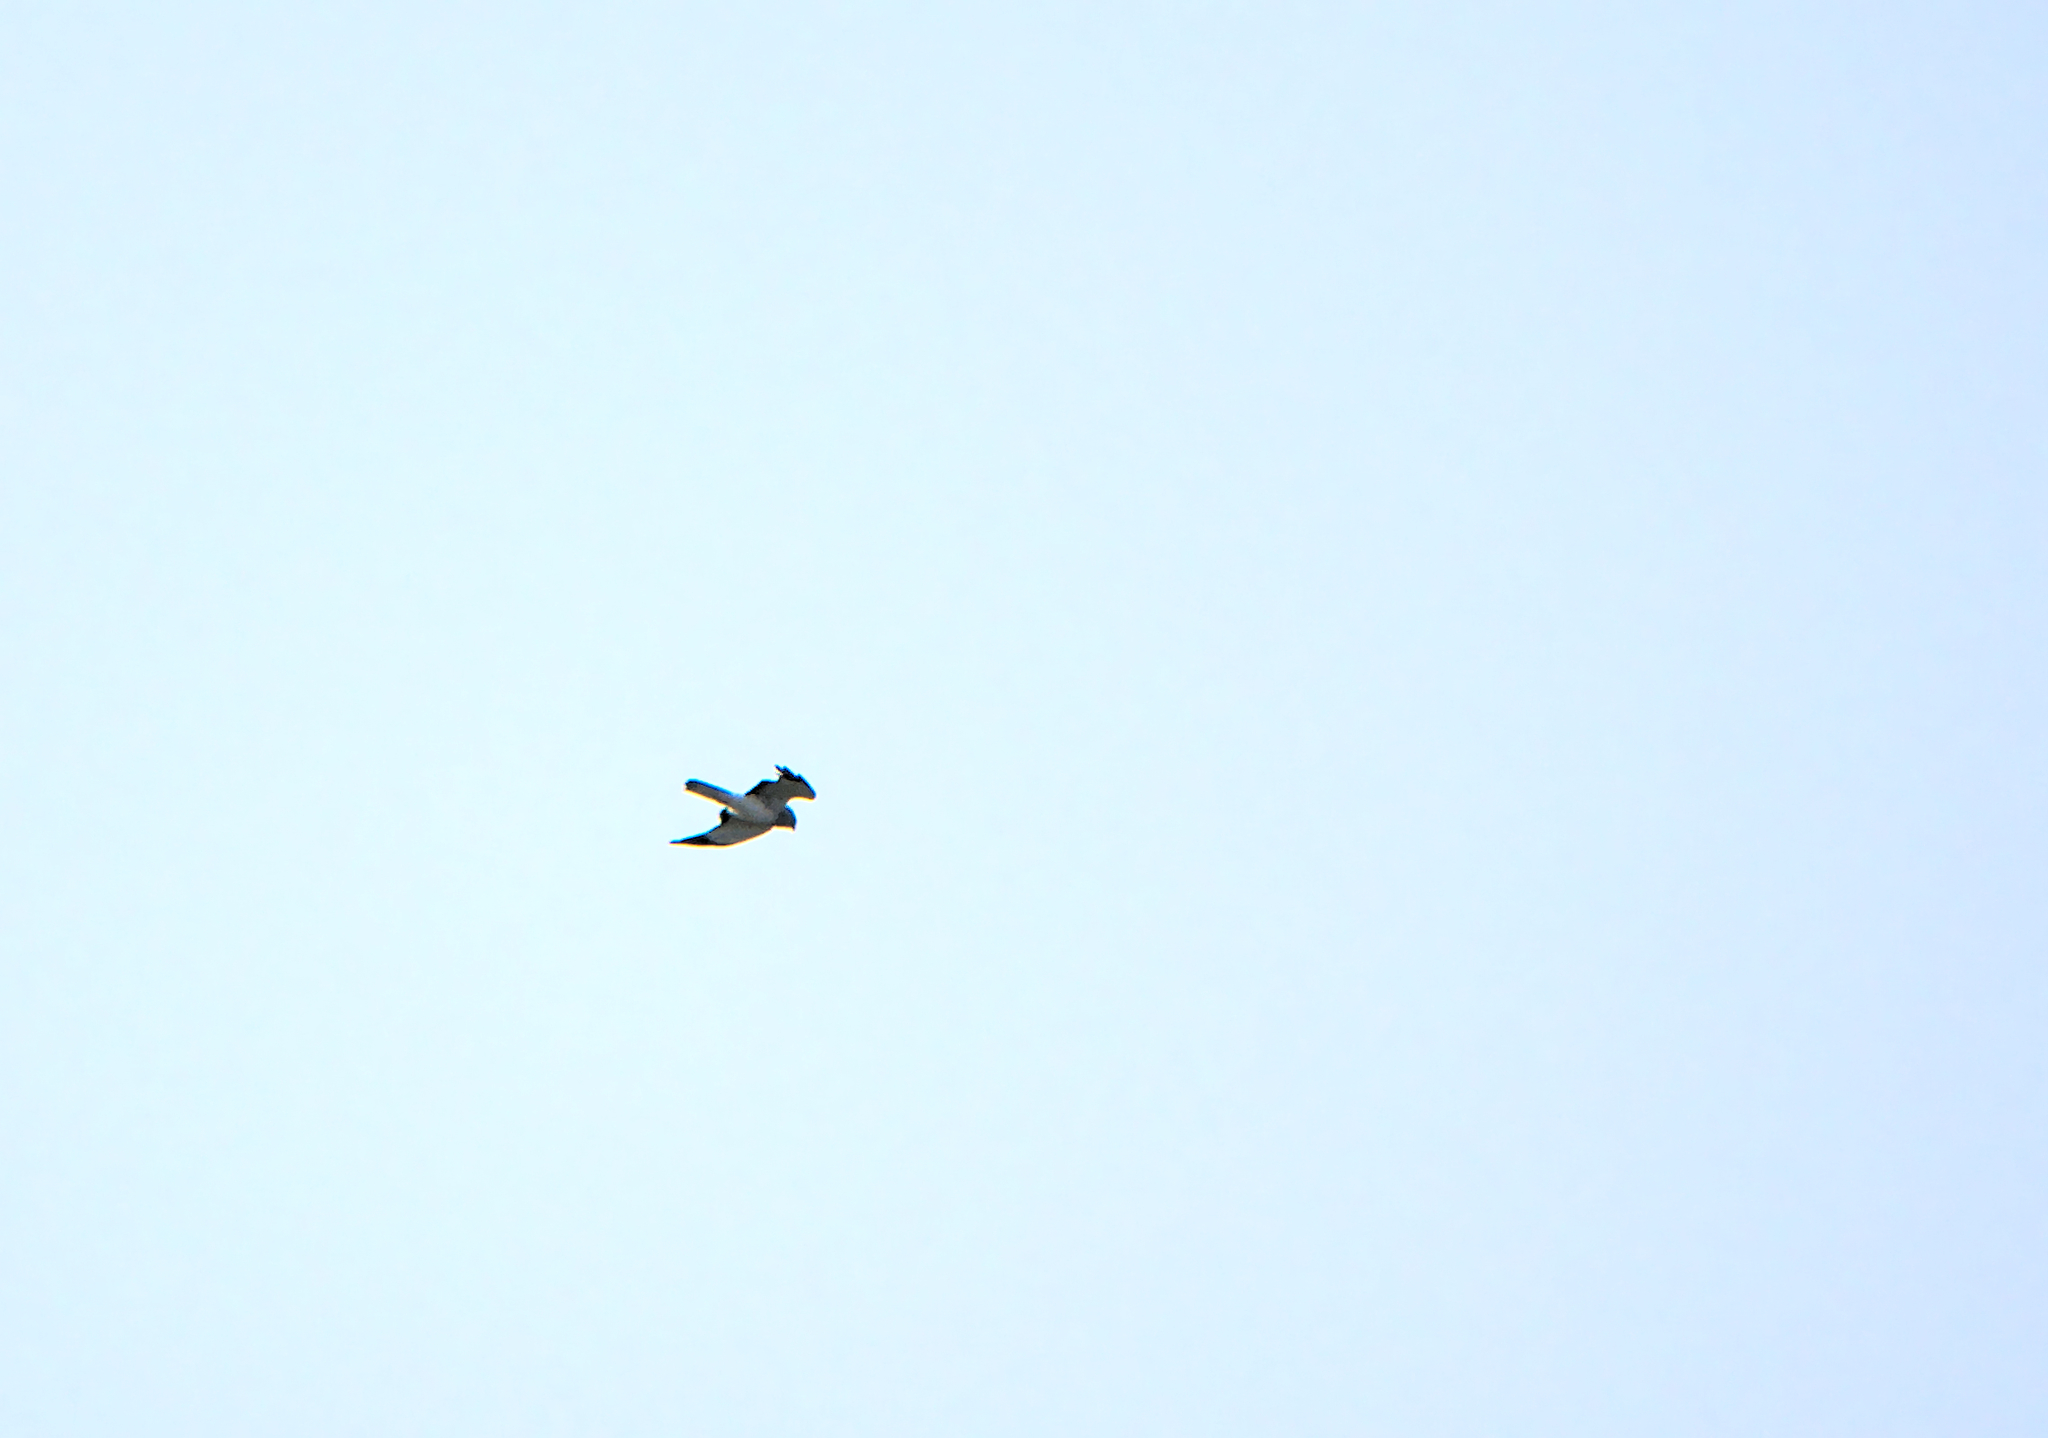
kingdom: Animalia
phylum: Chordata
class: Aves
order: Accipitriformes
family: Accipitridae
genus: Circus
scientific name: Circus cyaneus
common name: Hen harrier
